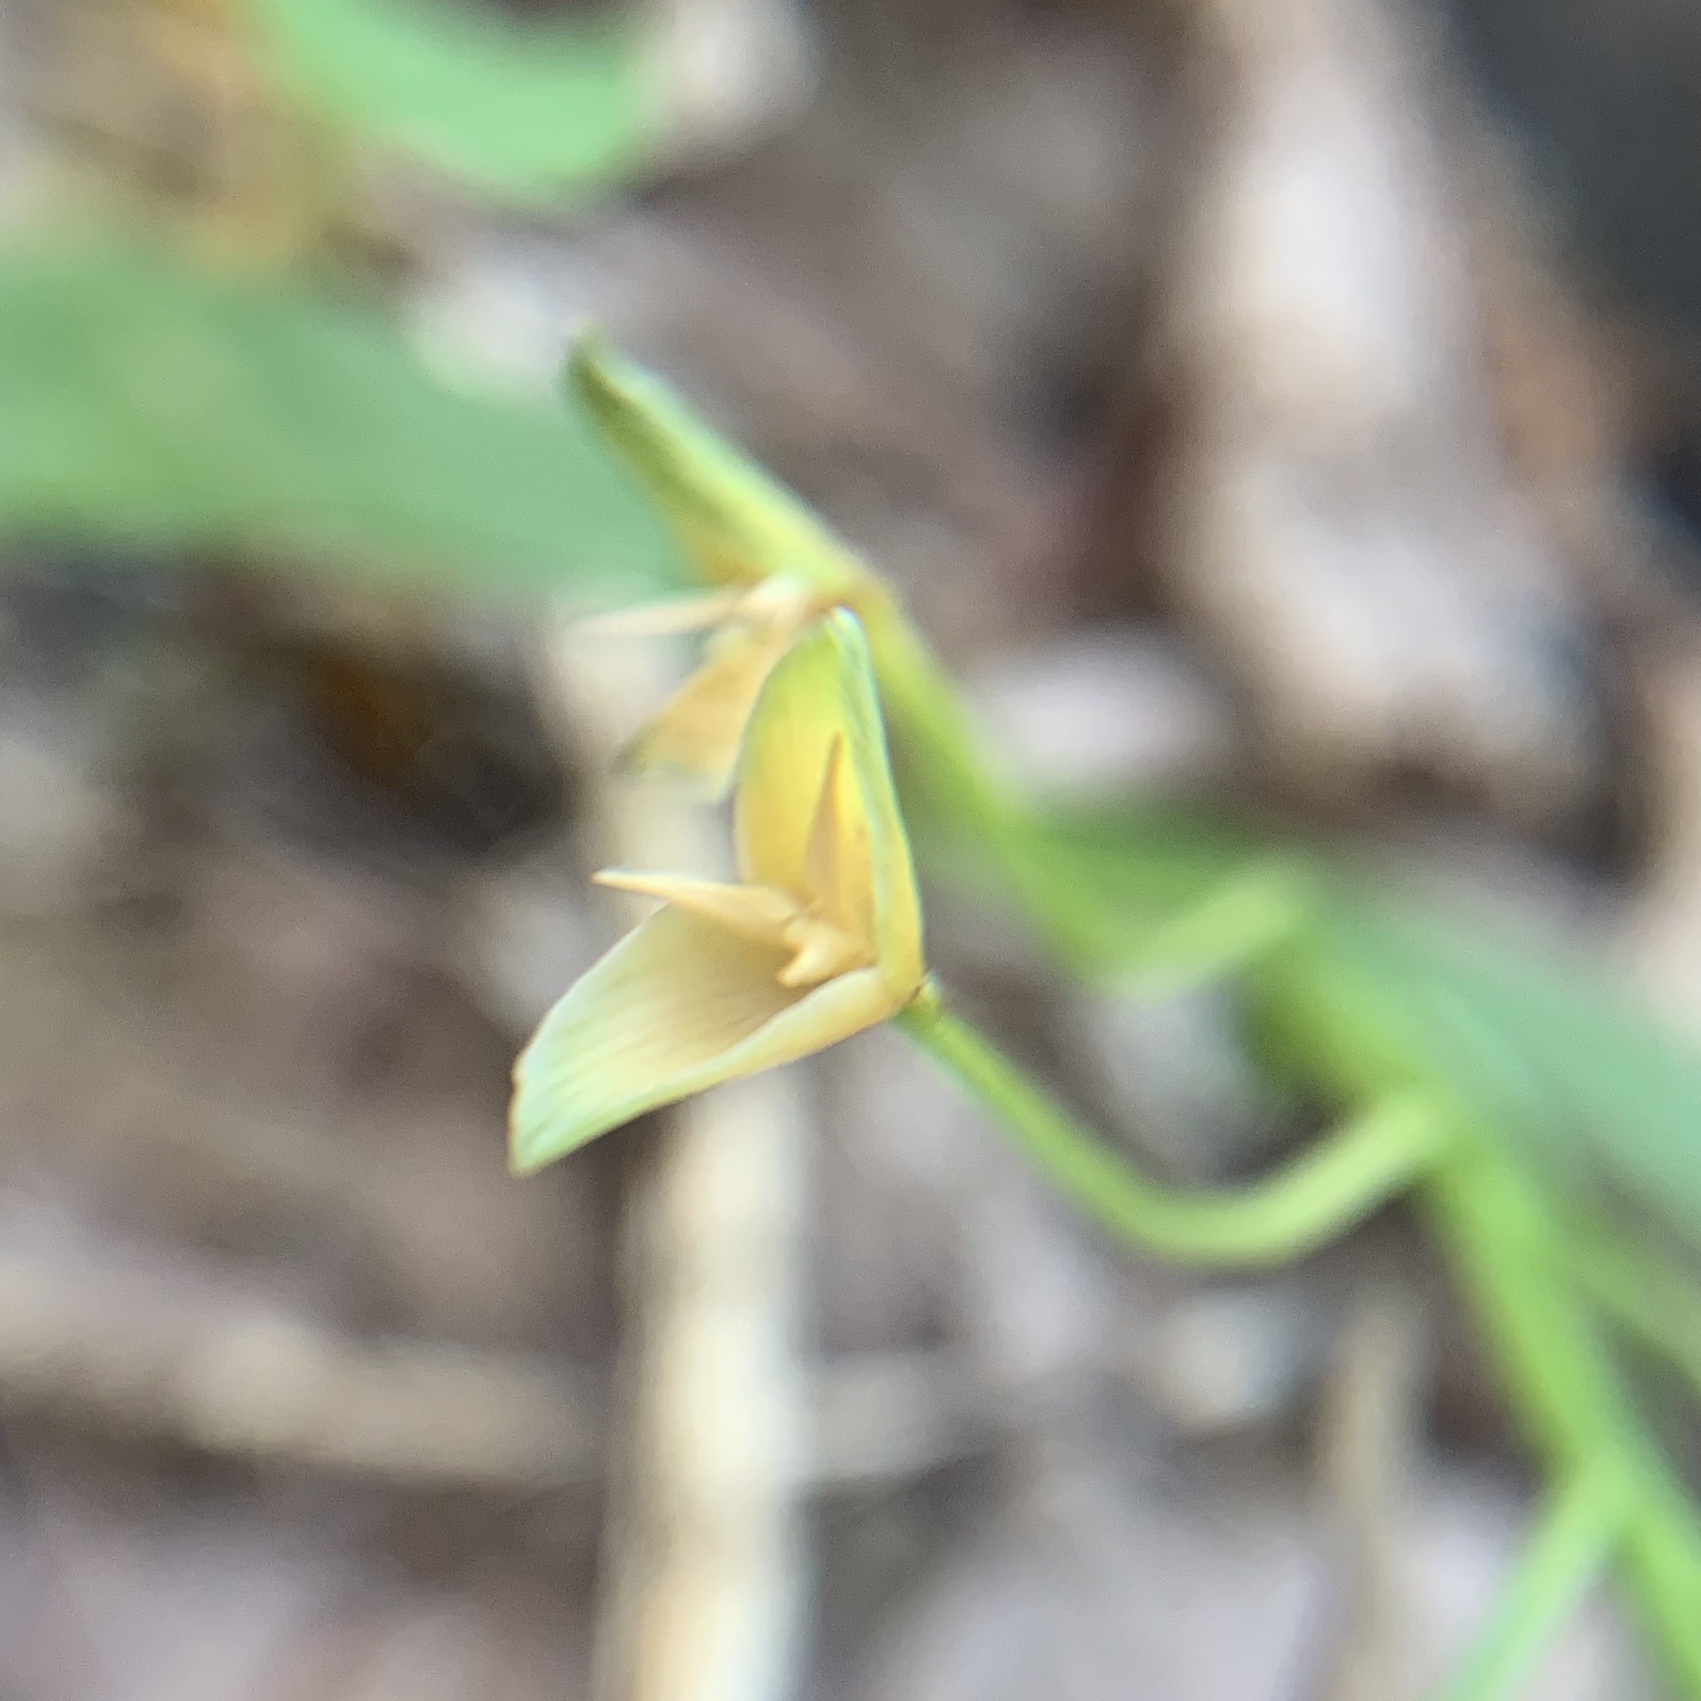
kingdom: Plantae
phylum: Tracheophyta
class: Magnoliopsida
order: Caryophyllales
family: Montiaceae
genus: Claytonia
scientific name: Claytonia virginica
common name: Virginia springbeauty
